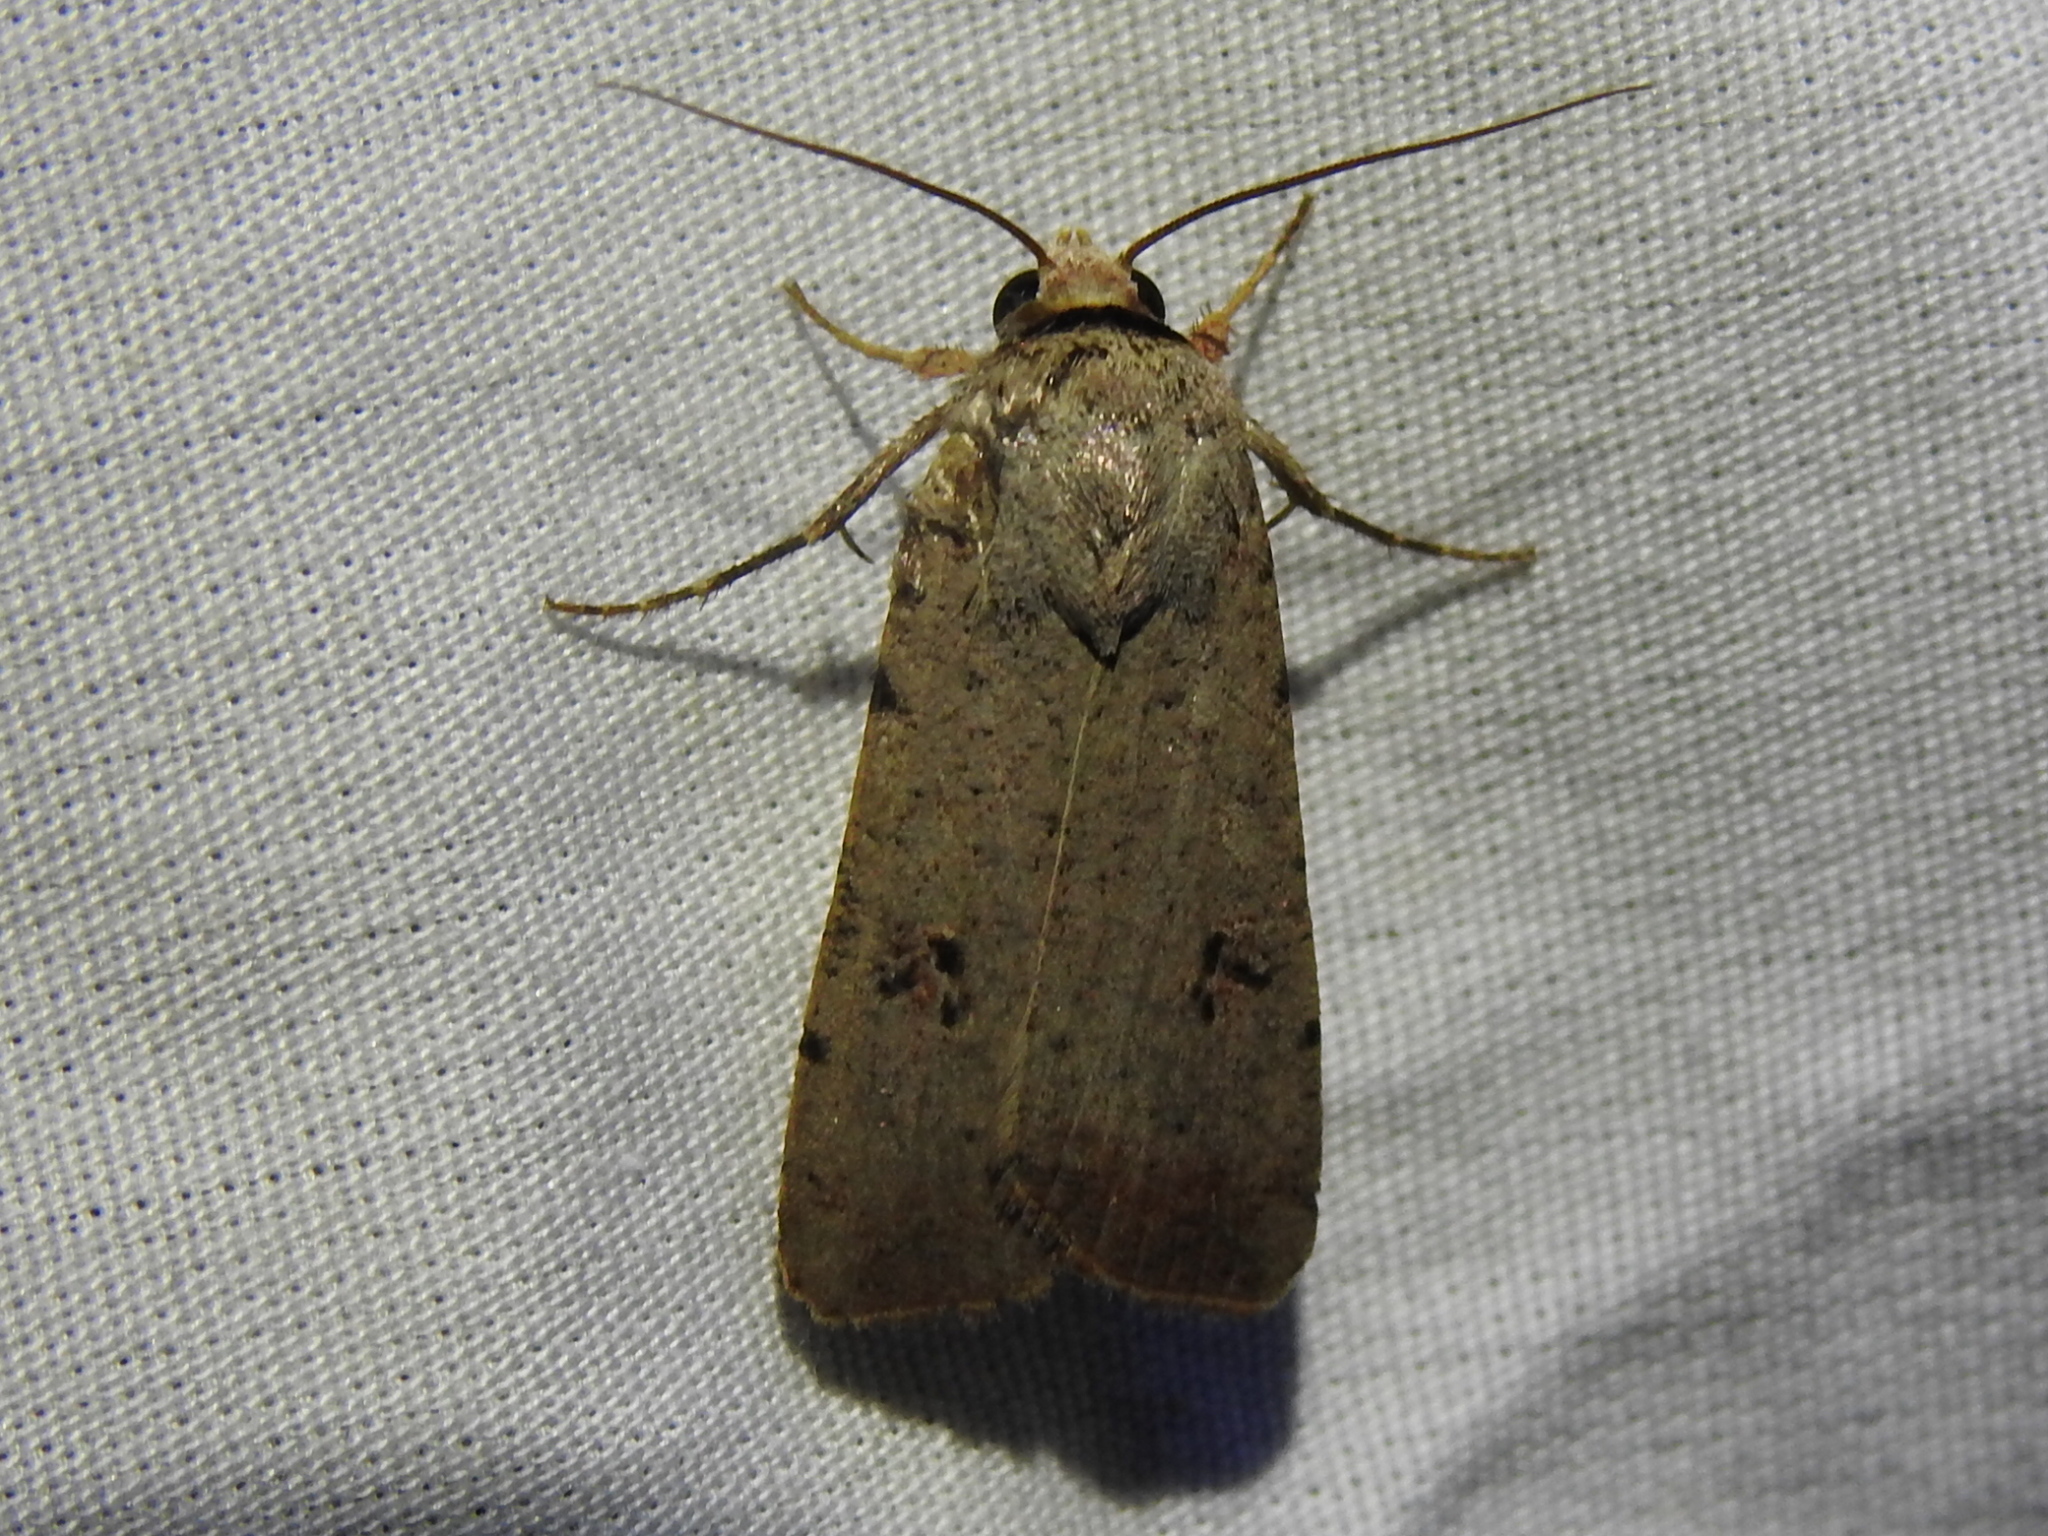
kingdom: Animalia
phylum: Arthropoda
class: Insecta
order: Lepidoptera
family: Noctuidae
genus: Anicla
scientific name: Anicla infecta
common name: Green cutworm
